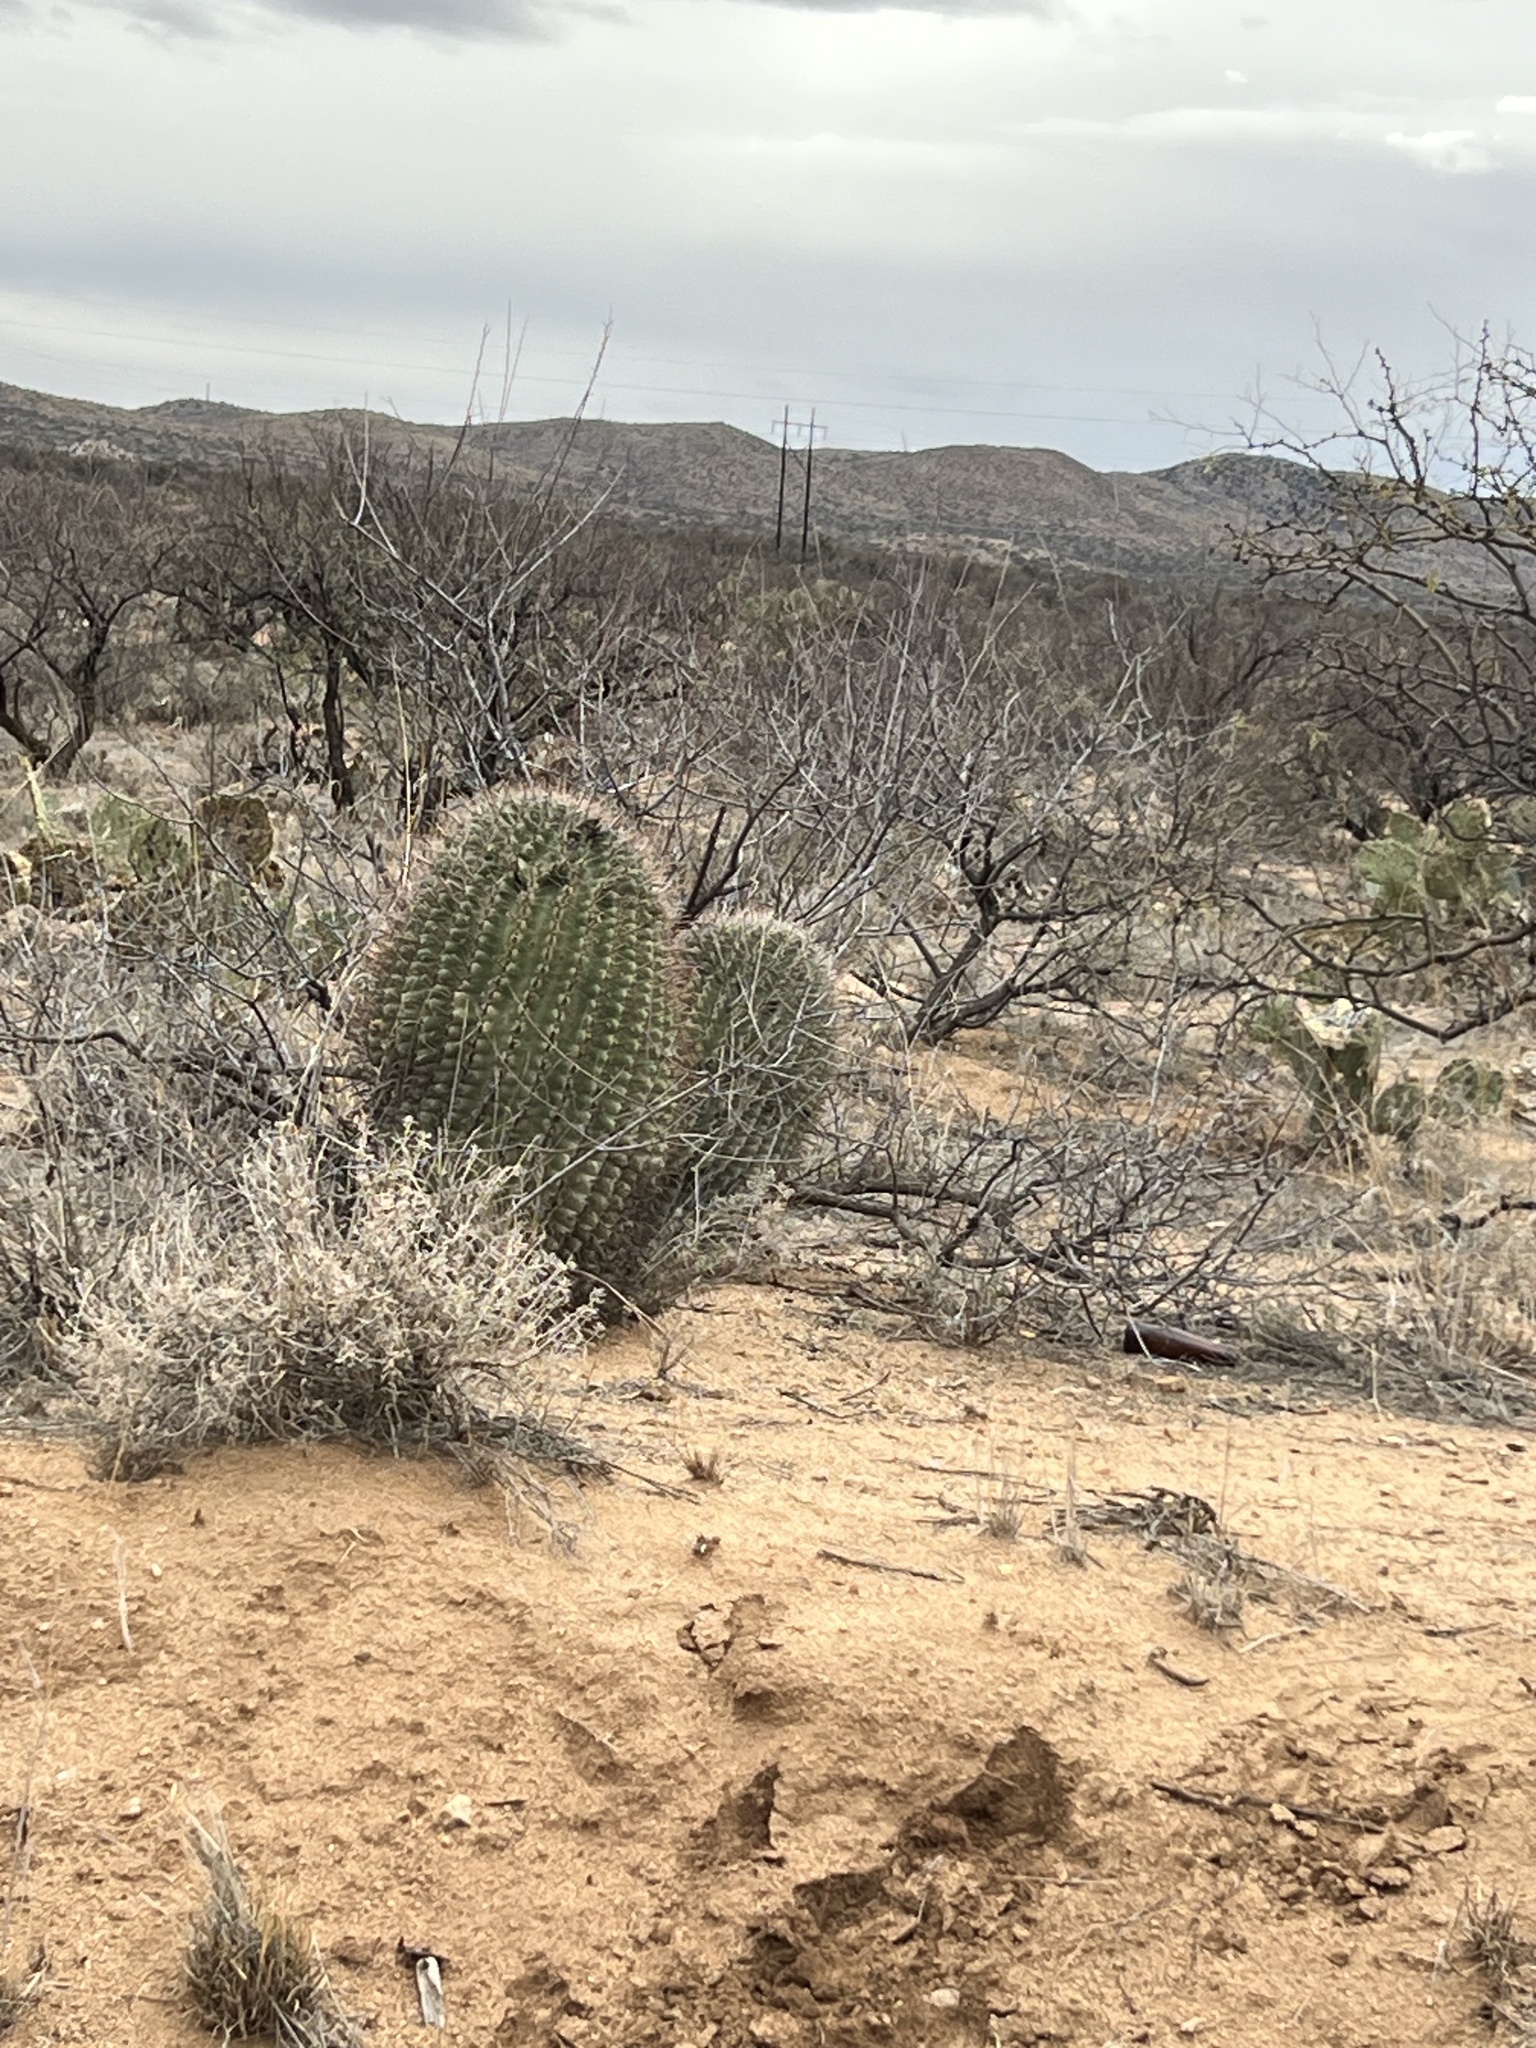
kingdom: Plantae
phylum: Tracheophyta
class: Magnoliopsida
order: Caryophyllales
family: Cactaceae
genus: Ferocactus
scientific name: Ferocactus wislizeni
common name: Candy barrel cactus
